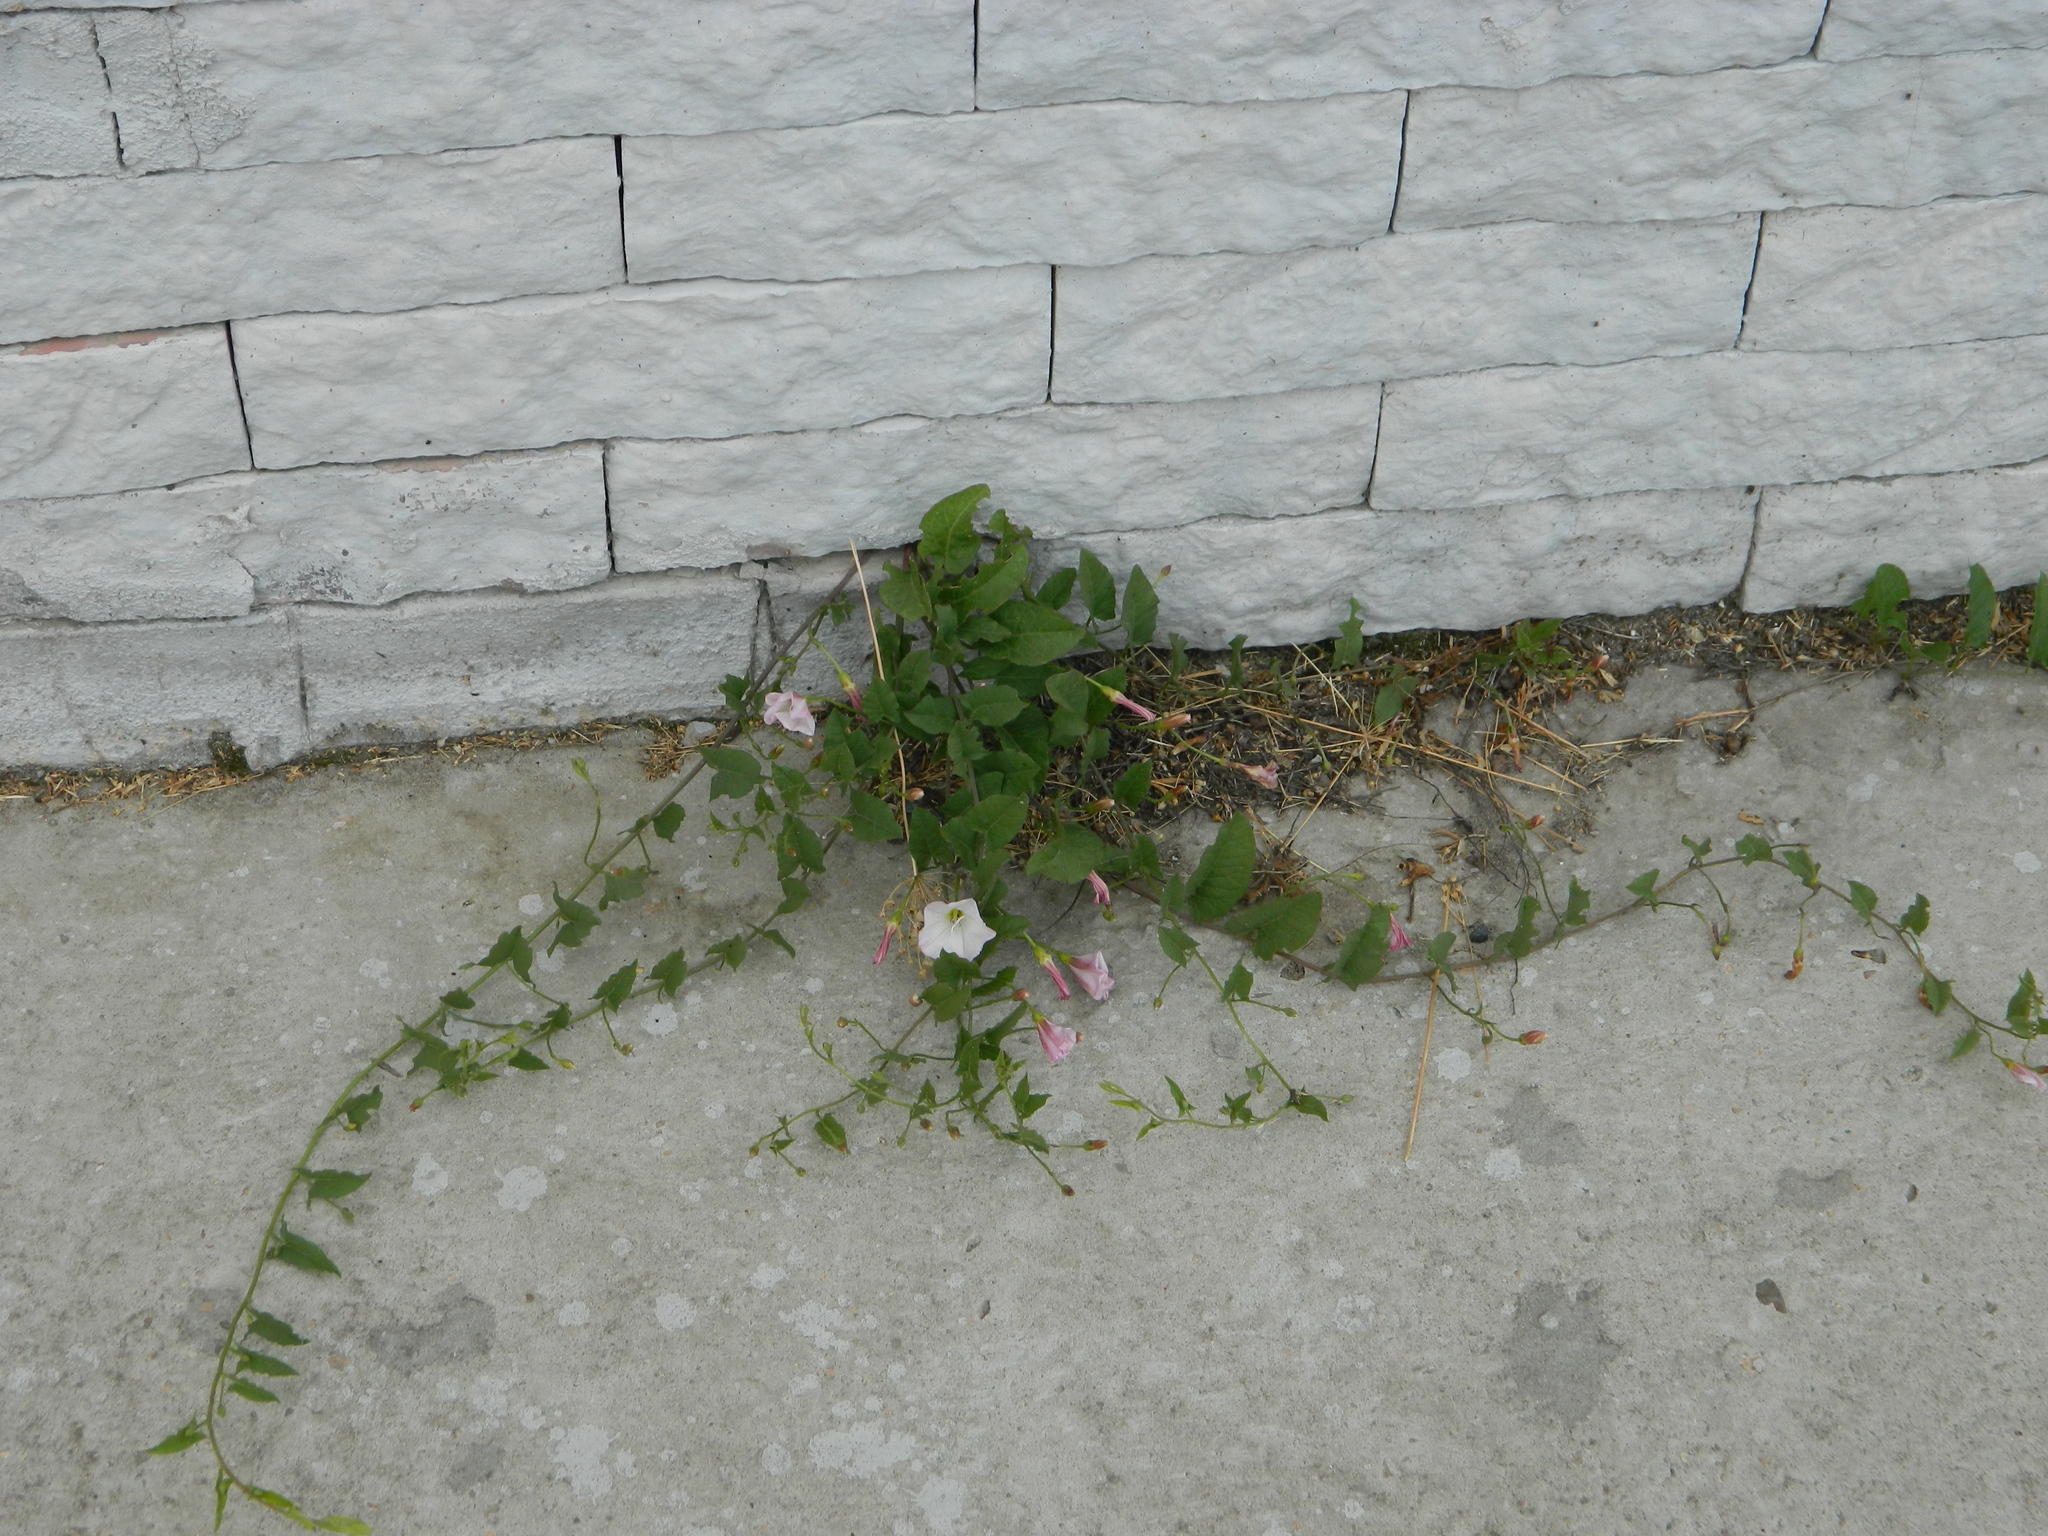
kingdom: Plantae
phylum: Tracheophyta
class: Magnoliopsida
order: Solanales
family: Convolvulaceae
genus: Convolvulus
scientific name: Convolvulus arvensis
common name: Field bindweed
